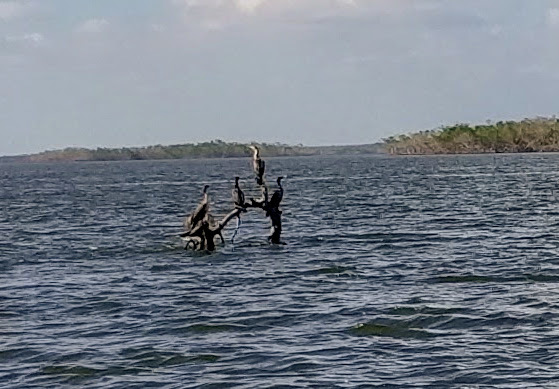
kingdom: Animalia
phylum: Chordata
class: Aves
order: Suliformes
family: Phalacrocoracidae
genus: Phalacrocorax
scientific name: Phalacrocorax auritus
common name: Double-crested cormorant
